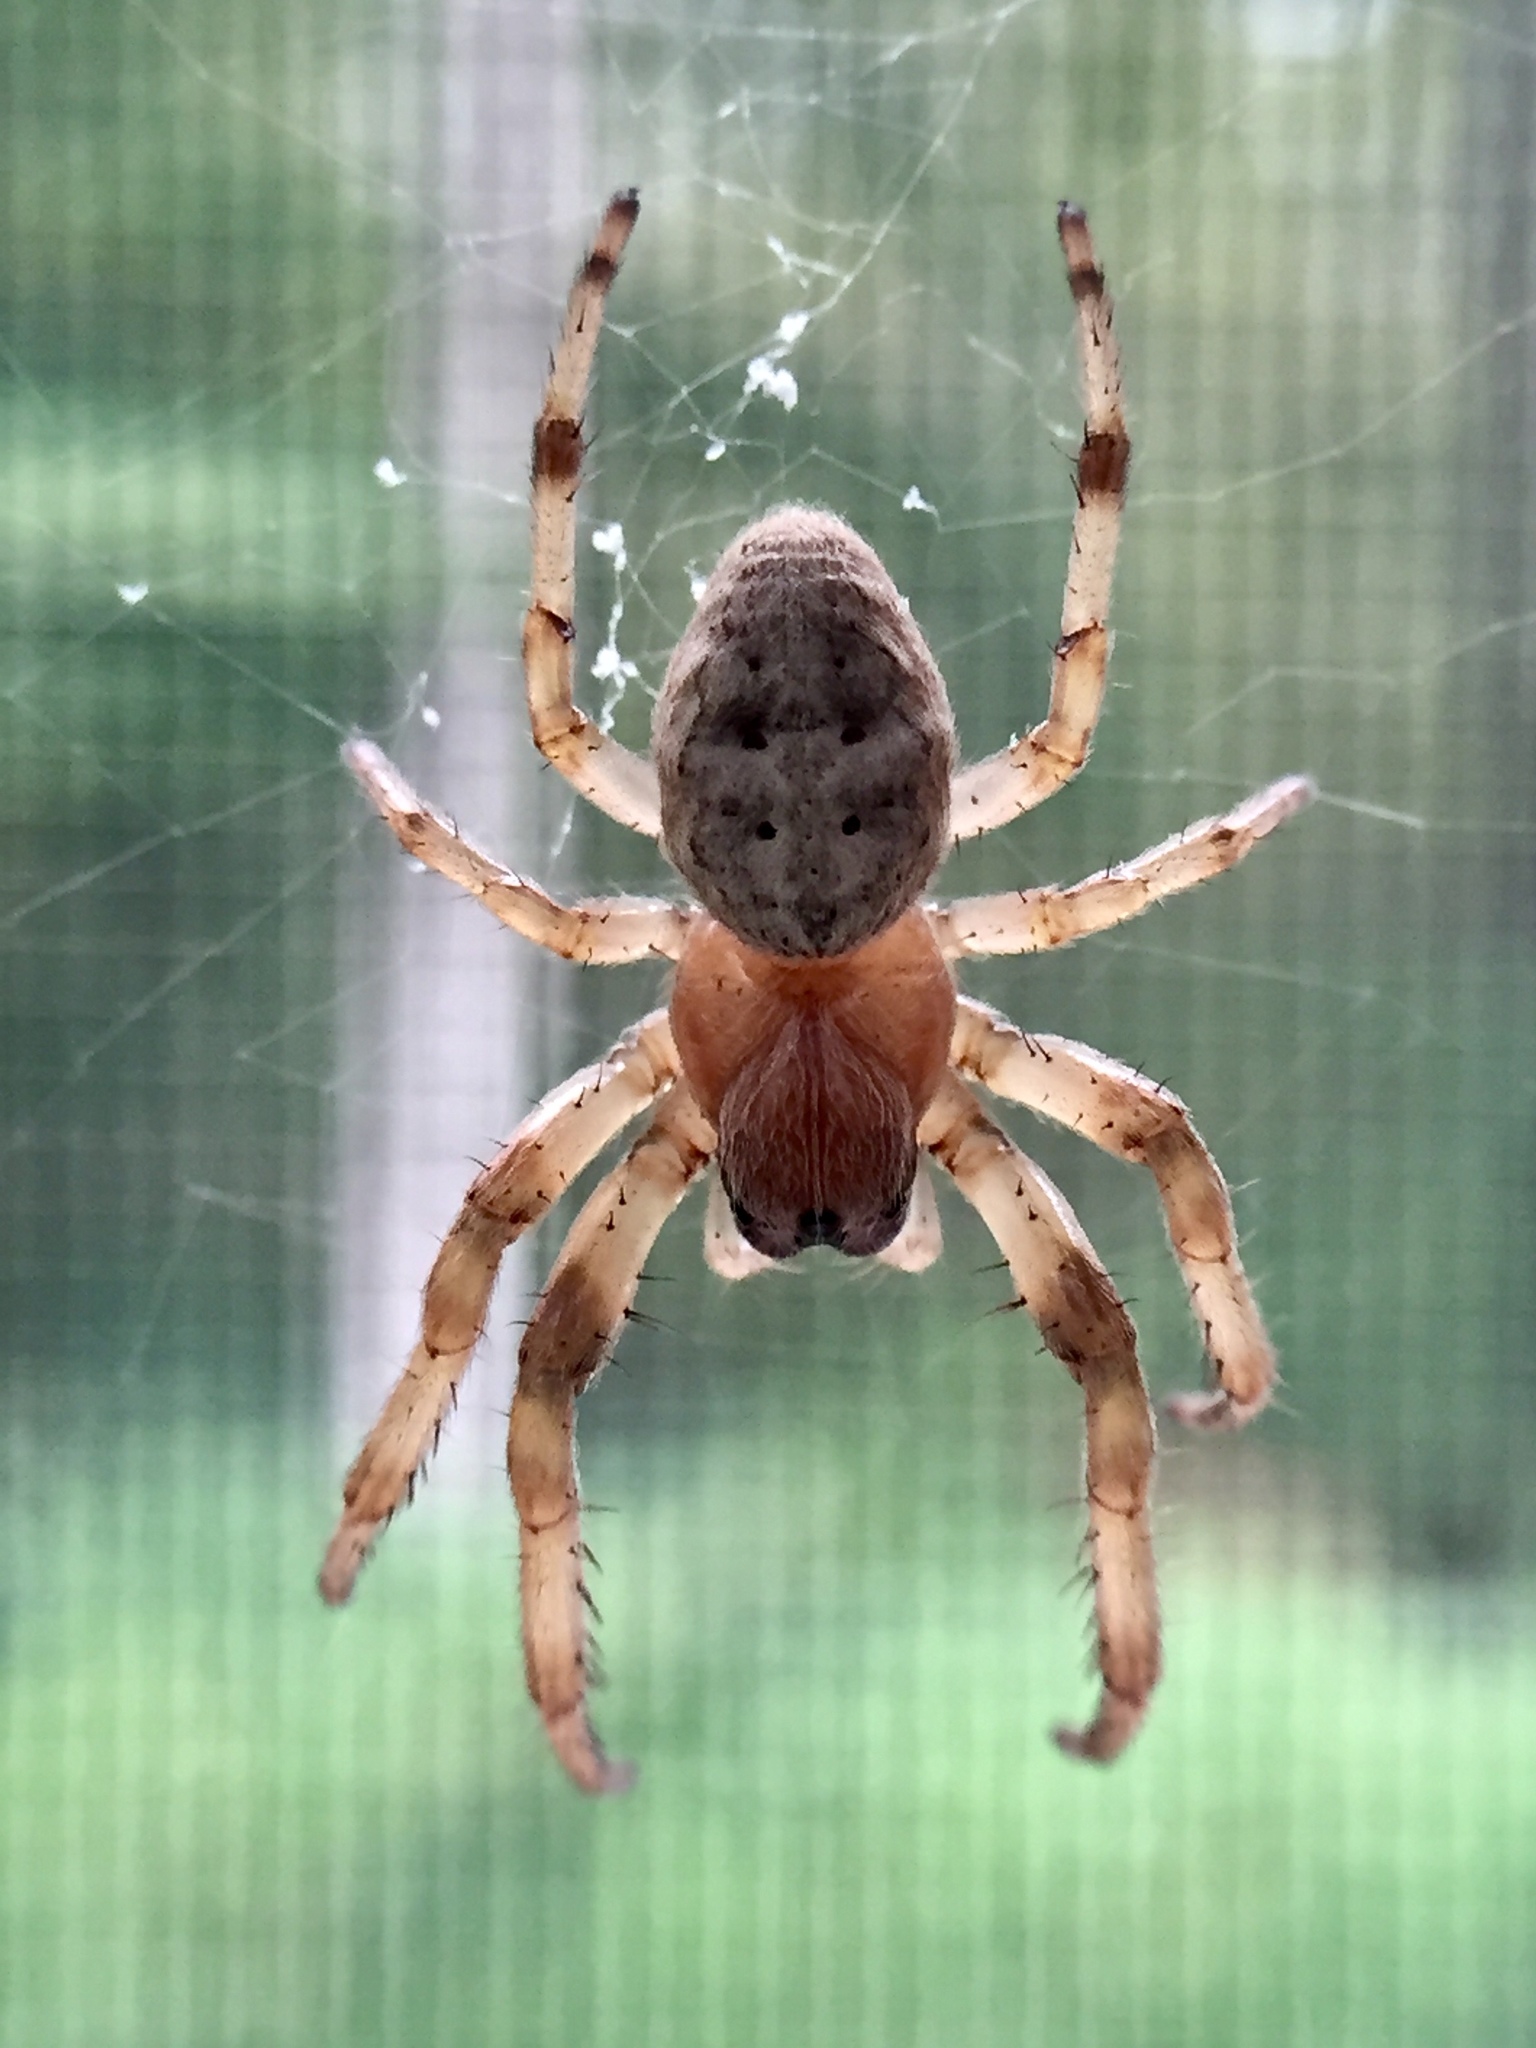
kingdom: Animalia
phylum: Arthropoda
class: Arachnida
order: Araneae
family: Araneidae
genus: Larinioides
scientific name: Larinioides cornutus
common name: Furrow orbweaver
